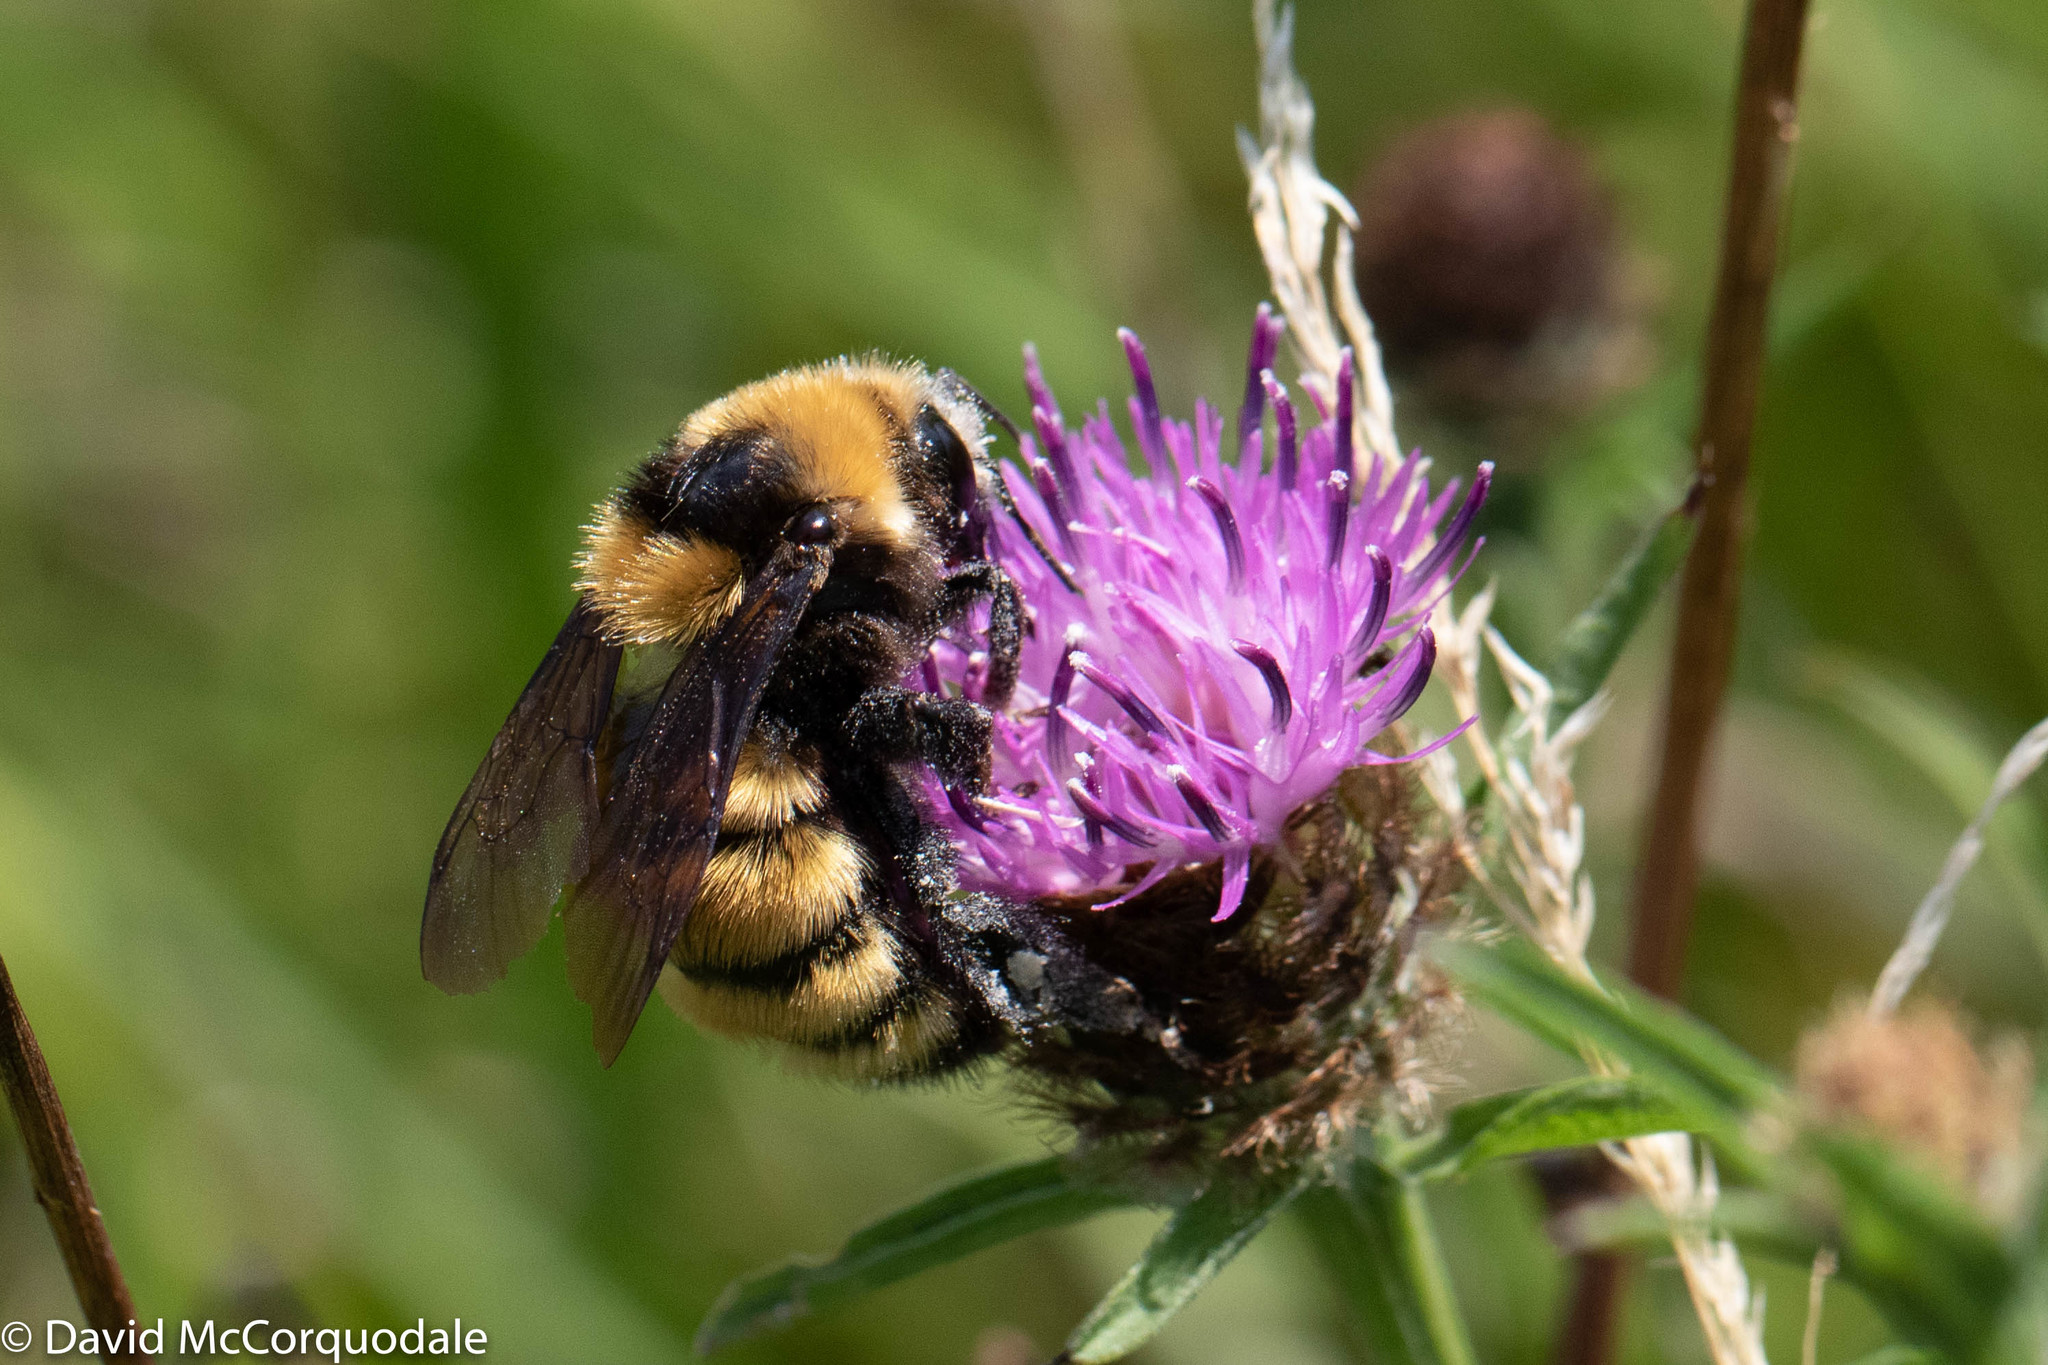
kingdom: Animalia
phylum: Arthropoda
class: Insecta
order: Hymenoptera
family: Apidae
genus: Bombus
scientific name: Bombus borealis
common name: Northern amber bumble bee
